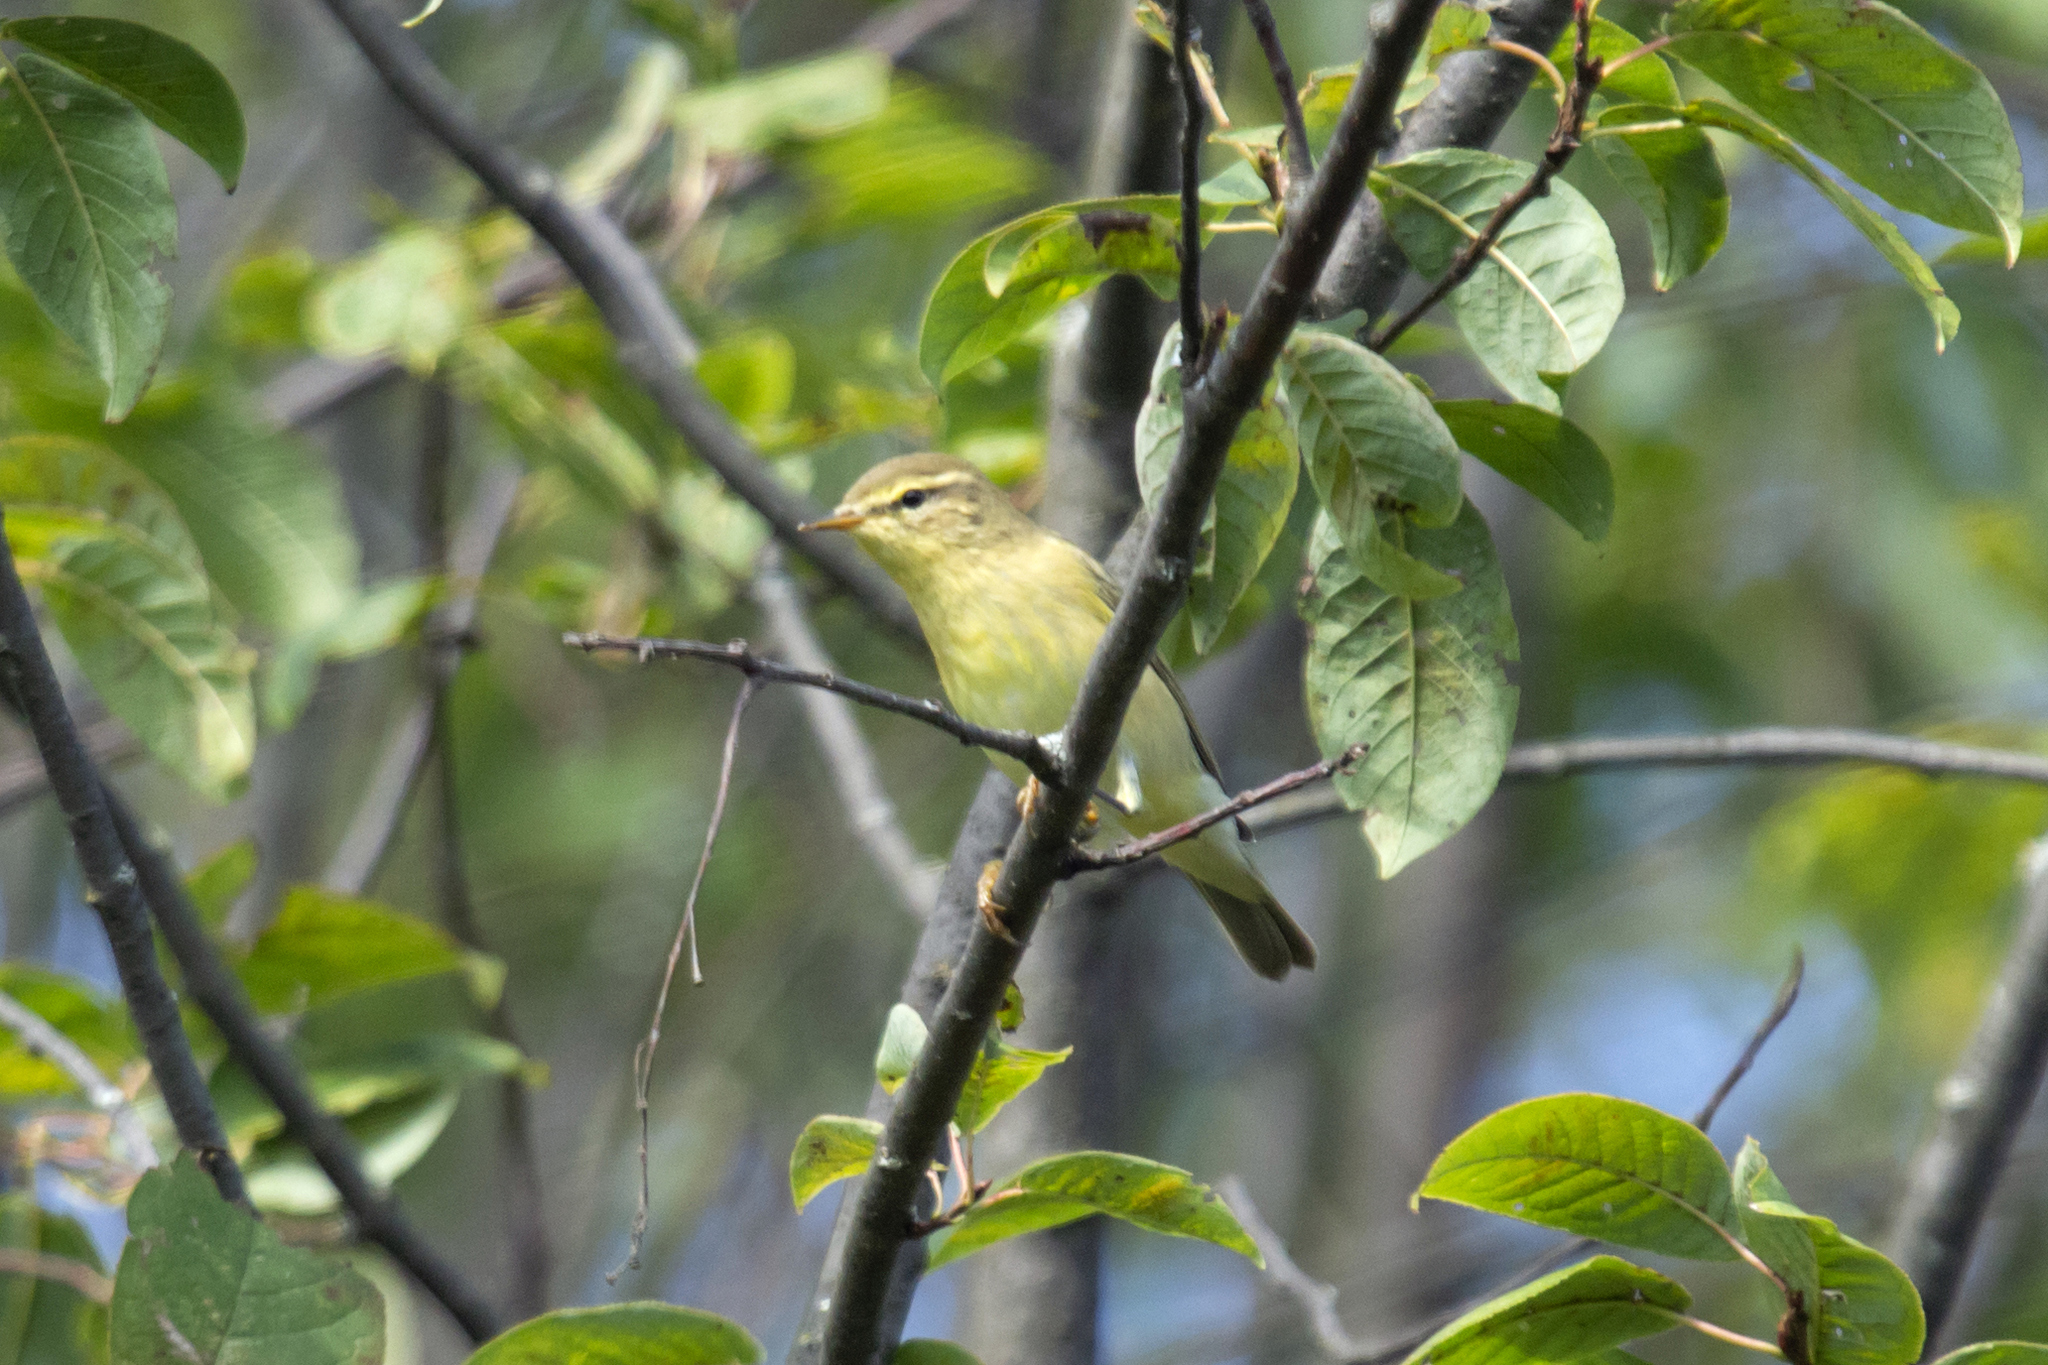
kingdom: Animalia
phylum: Chordata
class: Aves
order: Passeriformes
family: Phylloscopidae
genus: Phylloscopus
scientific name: Phylloscopus trochilus
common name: Willow warbler
